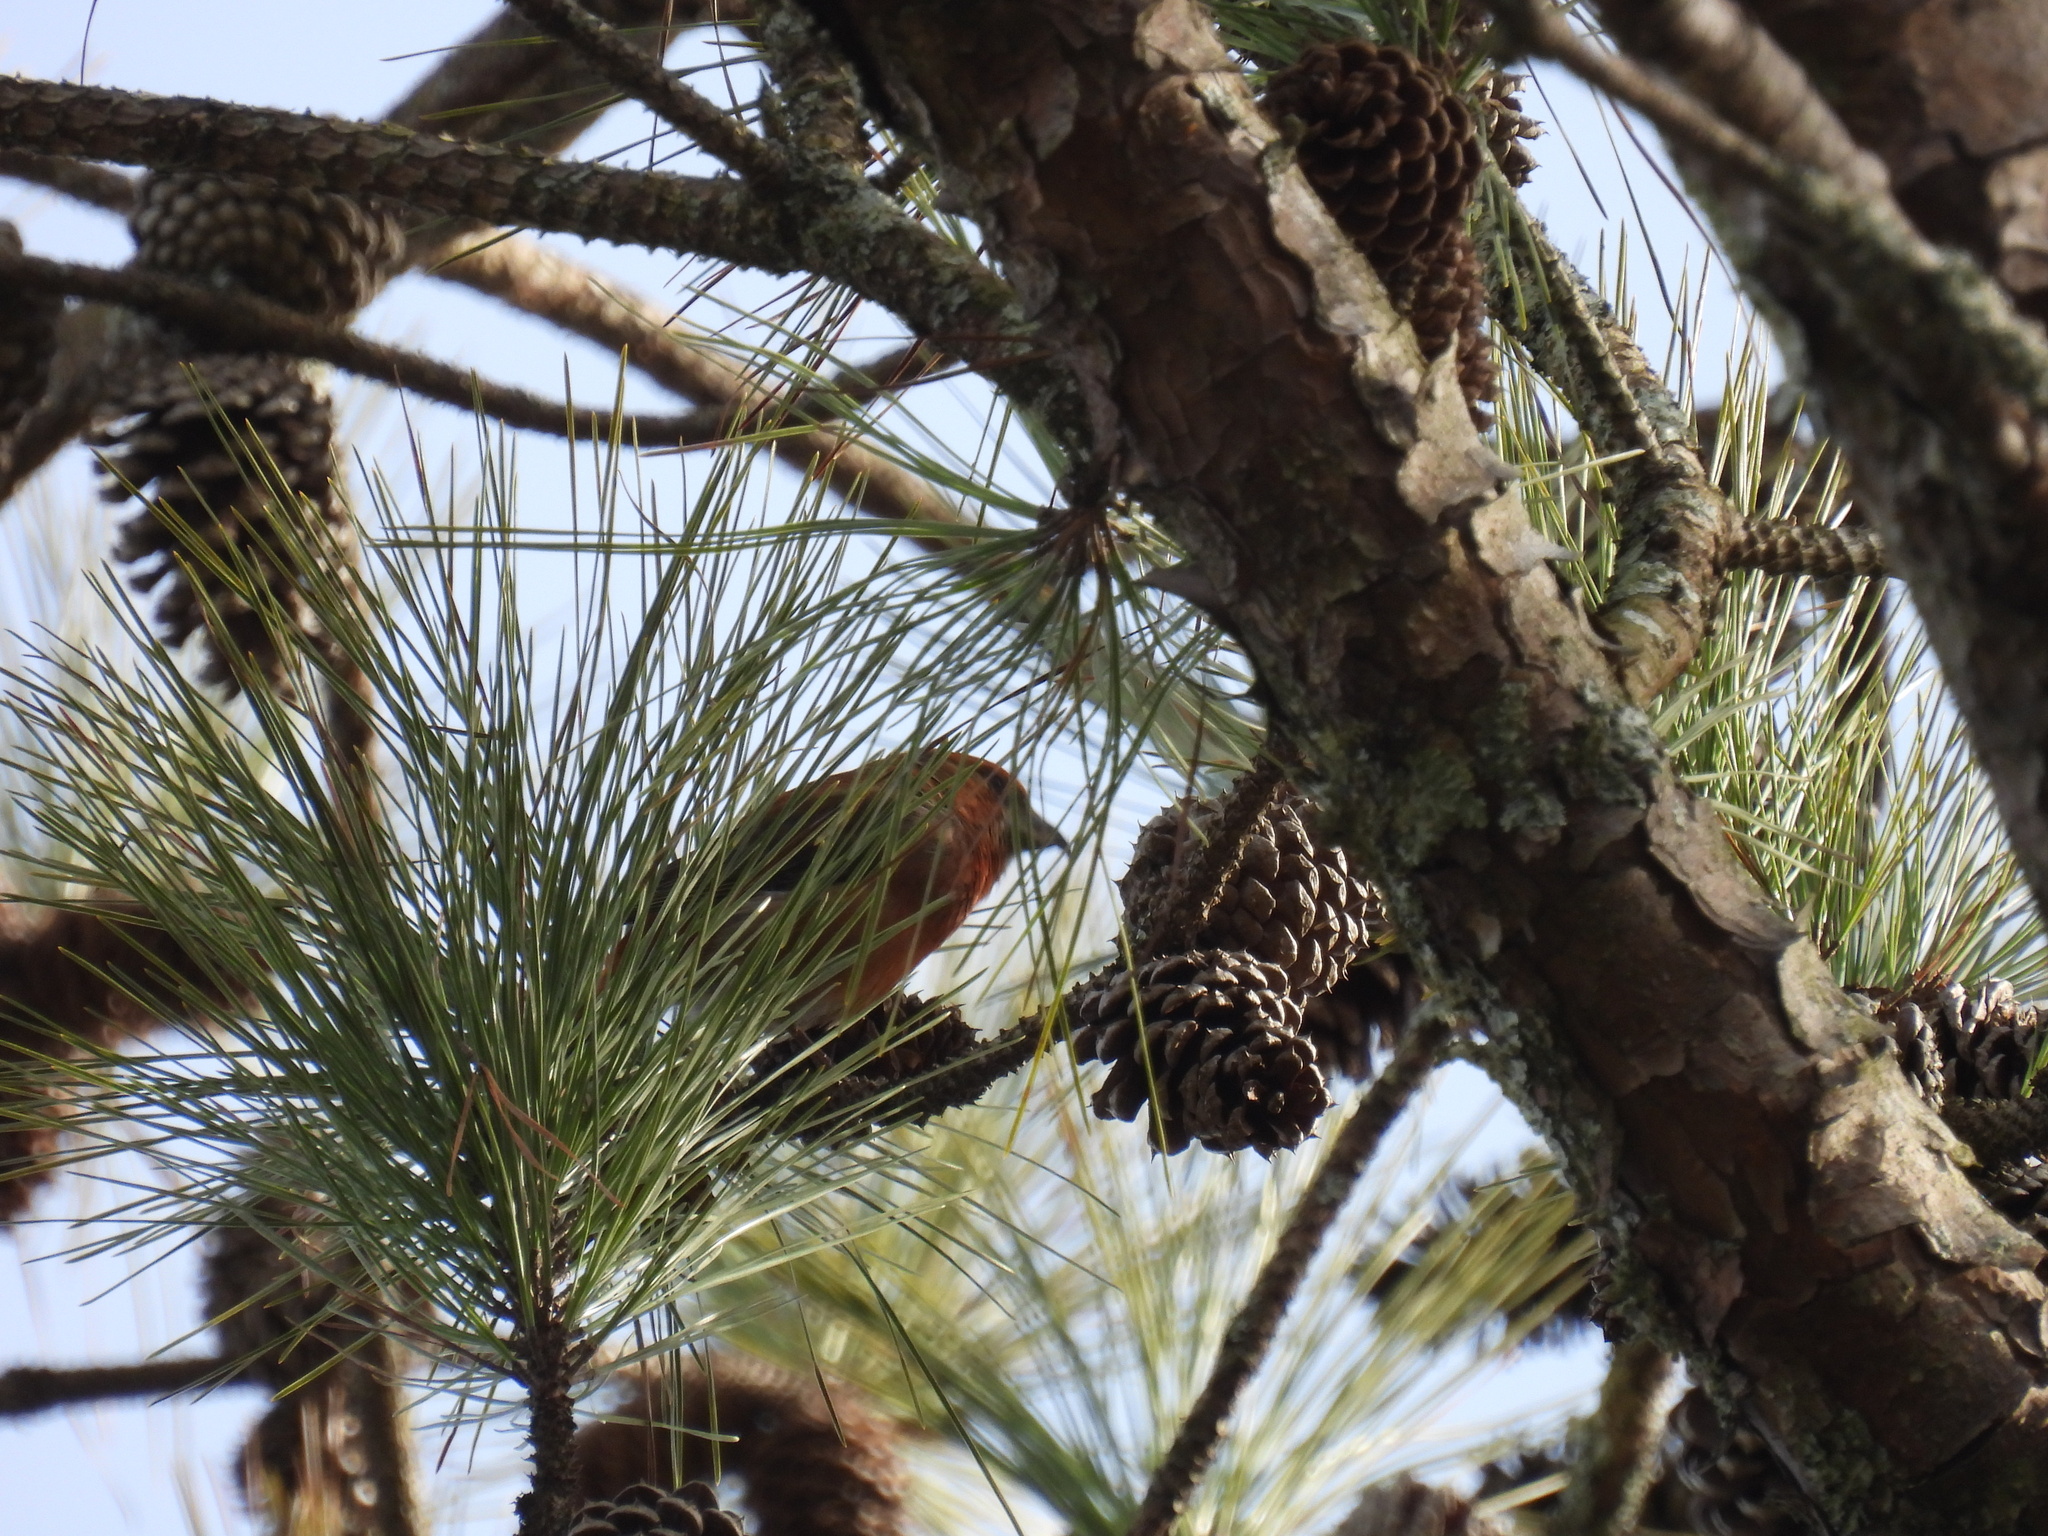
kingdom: Animalia
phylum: Chordata
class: Aves
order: Passeriformes
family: Fringillidae
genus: Loxia
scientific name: Loxia curvirostra
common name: Red crossbill
